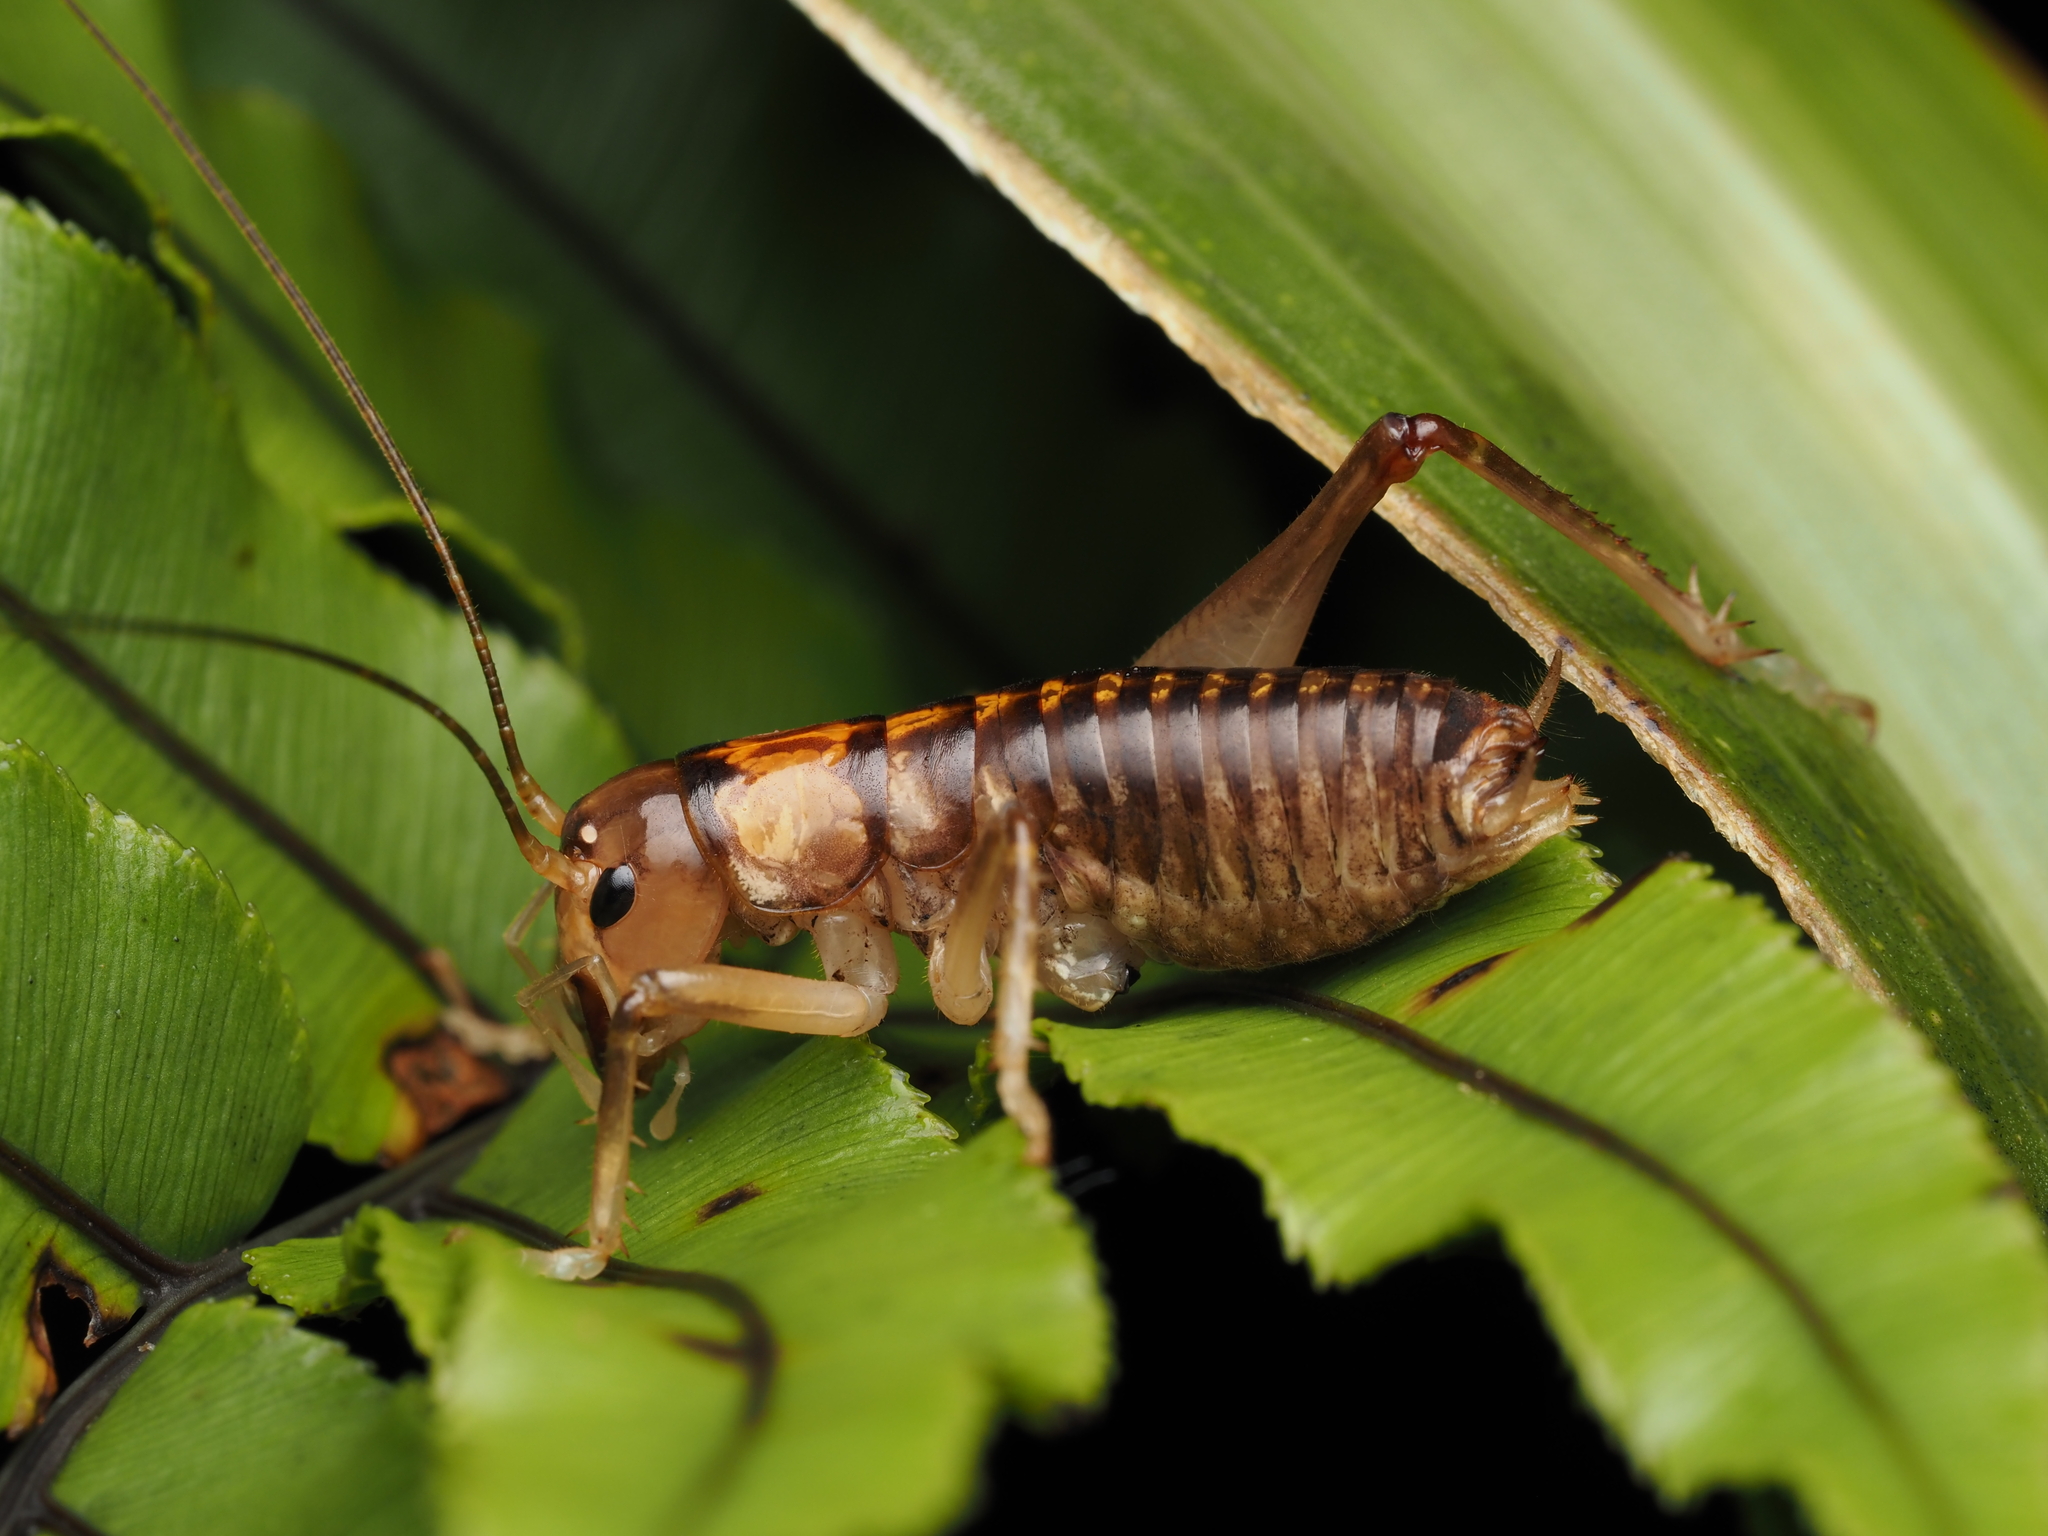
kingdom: Animalia
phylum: Arthropoda
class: Insecta
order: Orthoptera
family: Anostostomatidae
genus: Hemiandrus
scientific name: Hemiandrus pallitarsis
